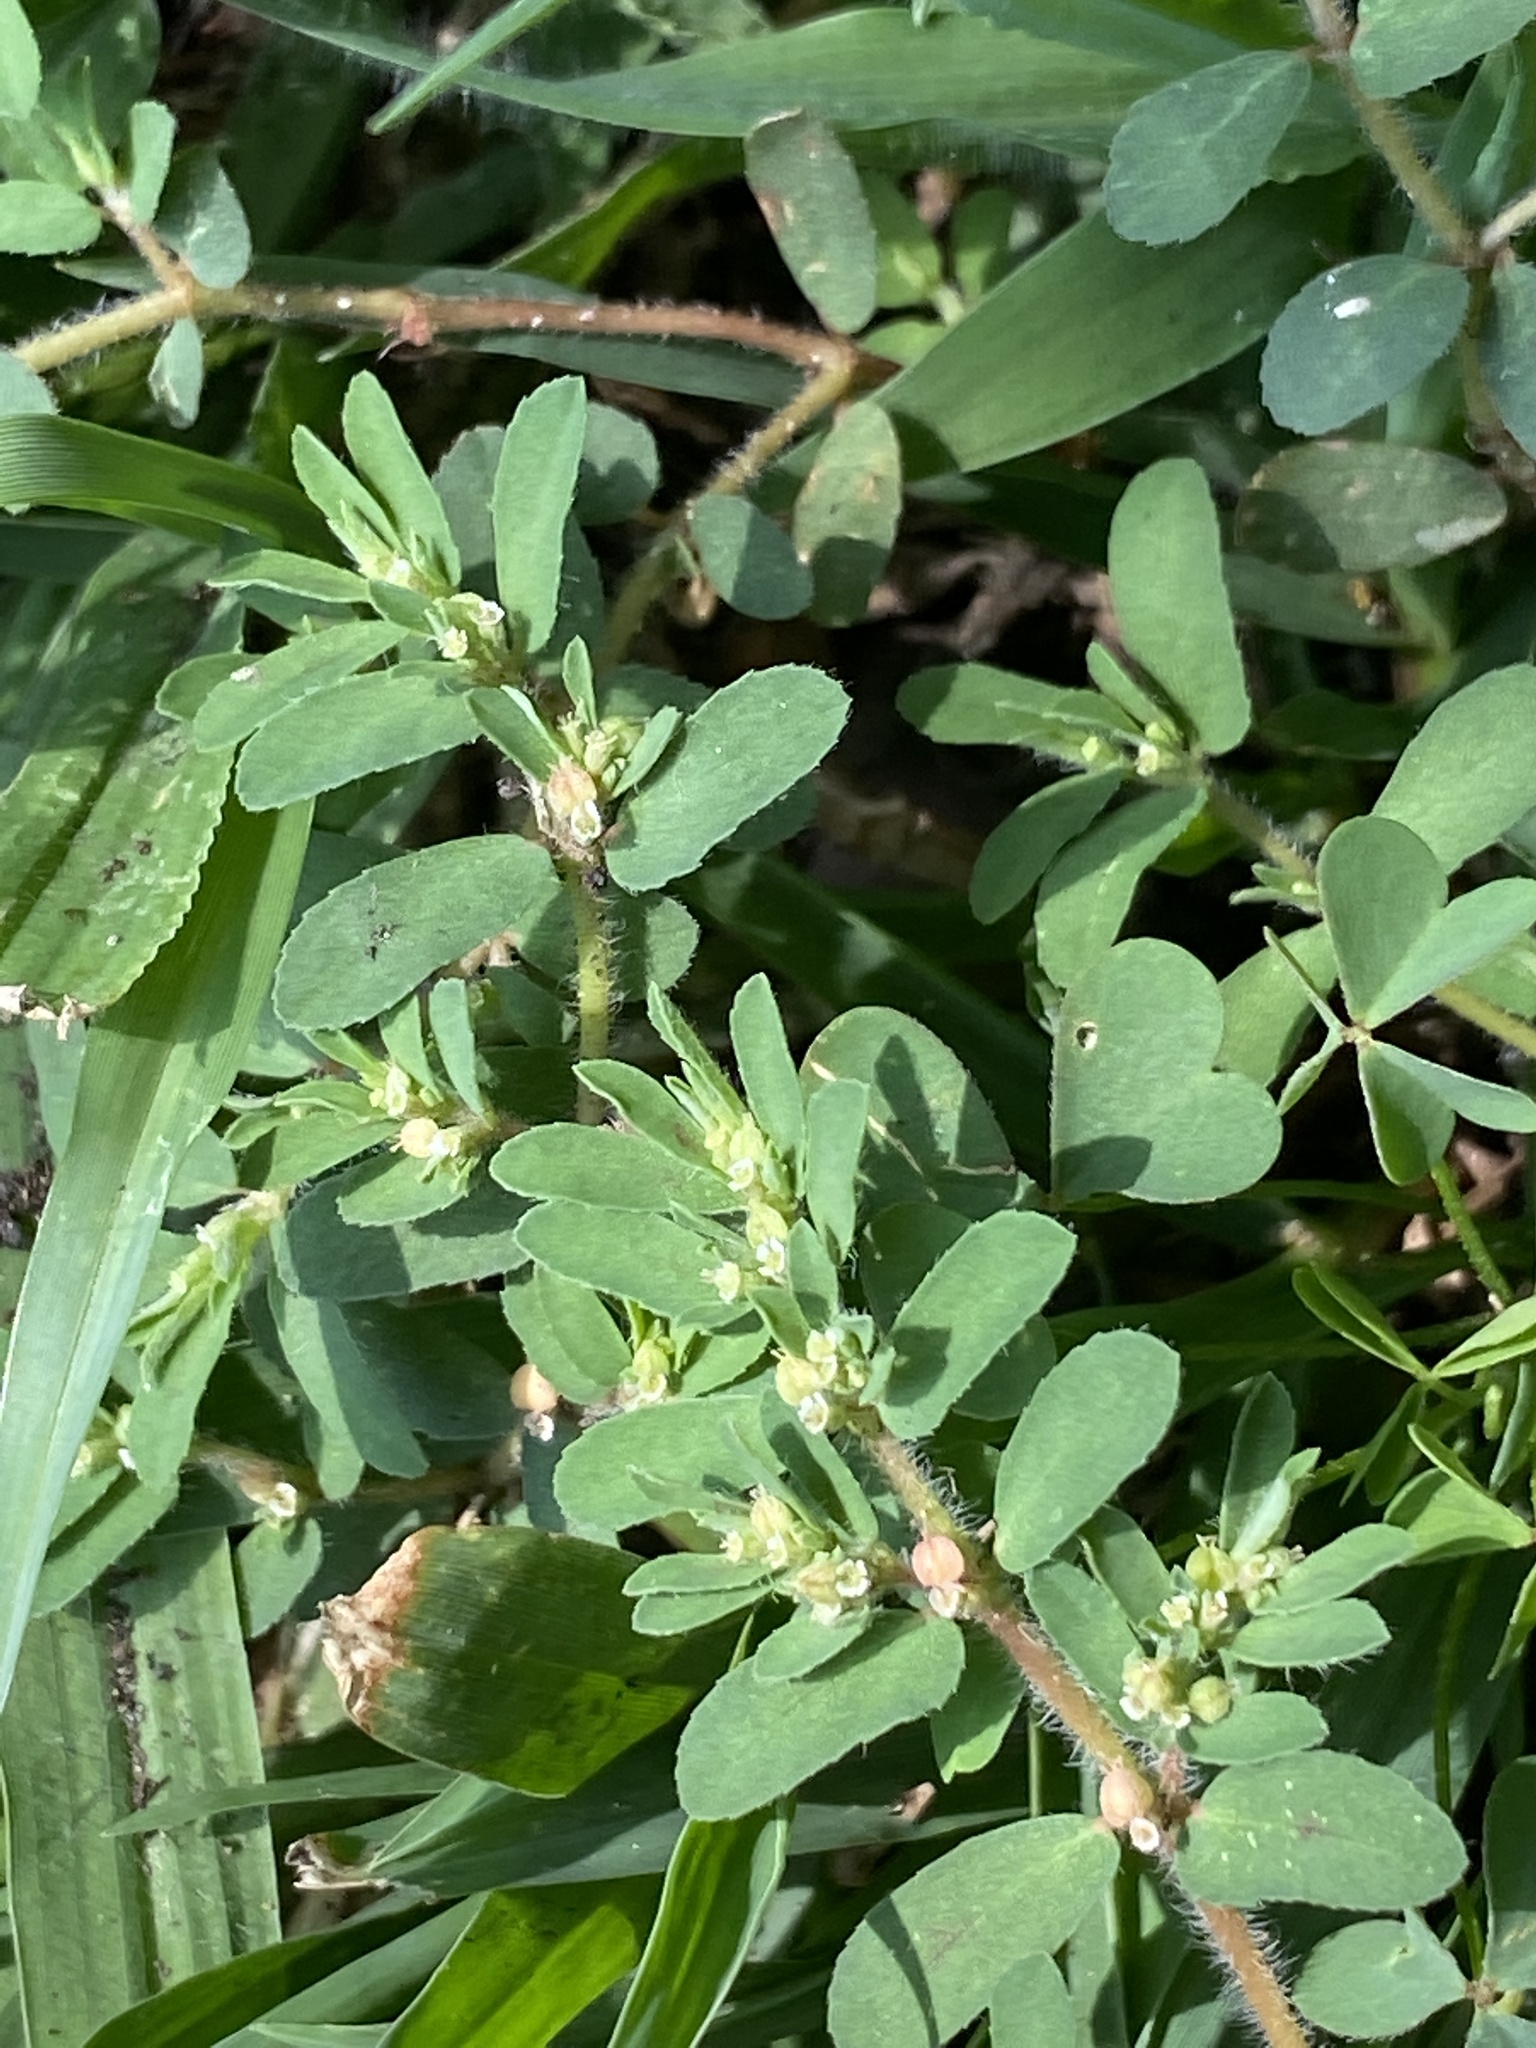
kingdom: Plantae
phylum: Tracheophyta
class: Magnoliopsida
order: Malpighiales
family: Euphorbiaceae
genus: Euphorbia
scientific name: Euphorbia maculata
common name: Spotted spurge
